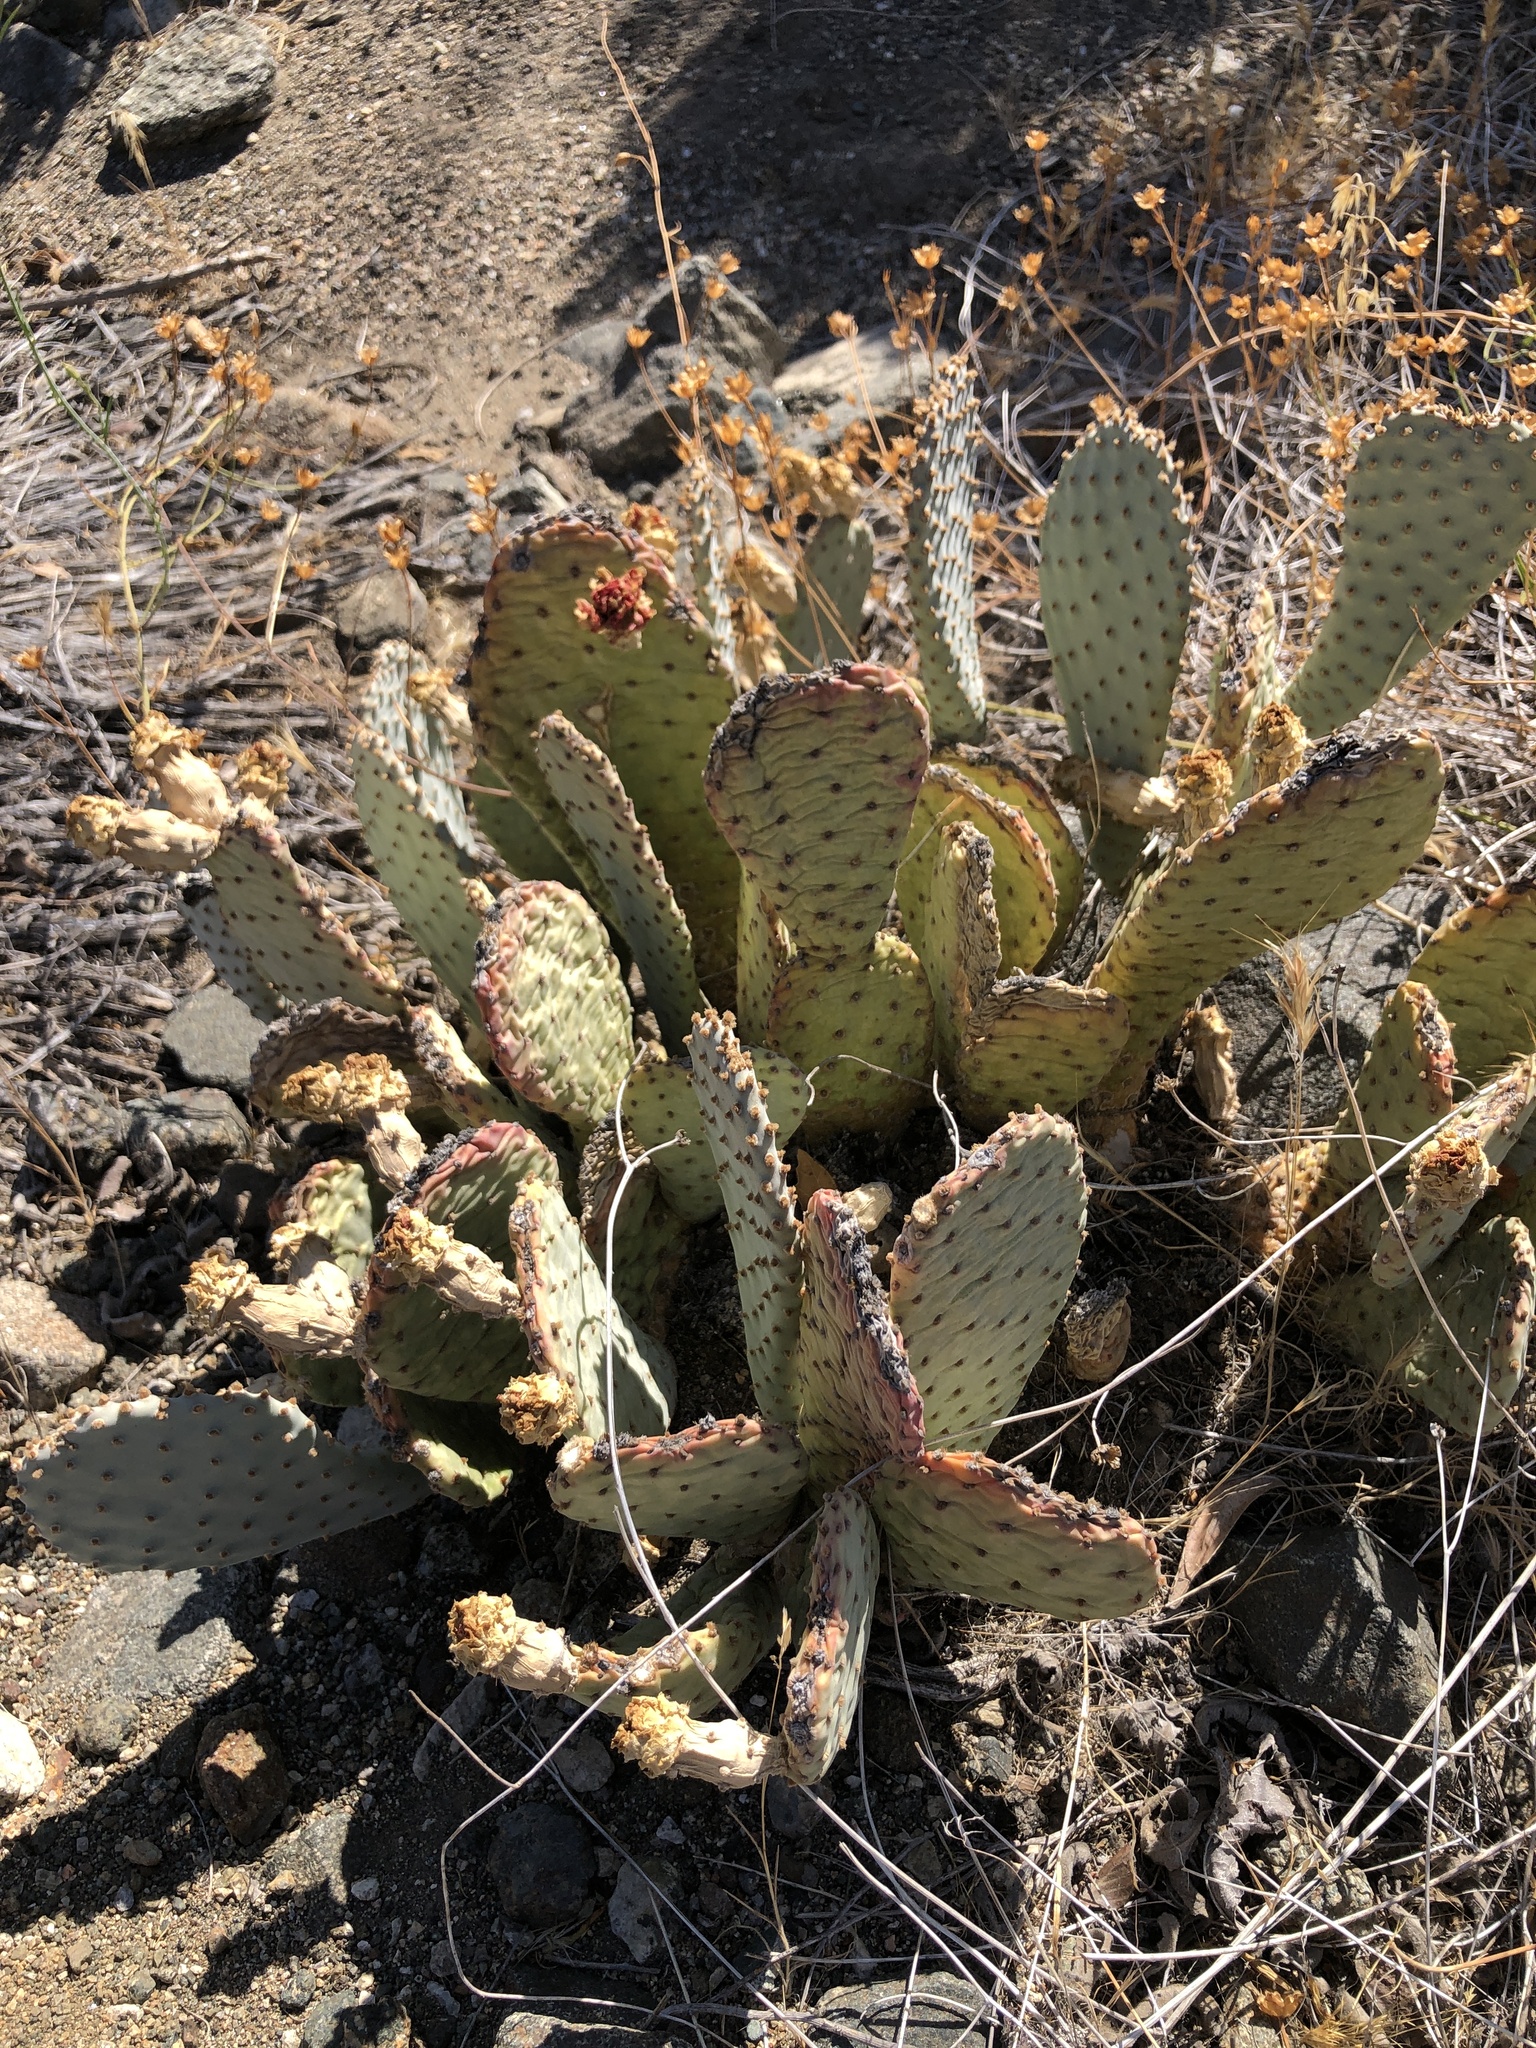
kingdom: Plantae
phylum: Tracheophyta
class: Magnoliopsida
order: Caryophyllales
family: Cactaceae
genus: Opuntia
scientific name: Opuntia basilaris
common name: Beavertail prickly-pear
